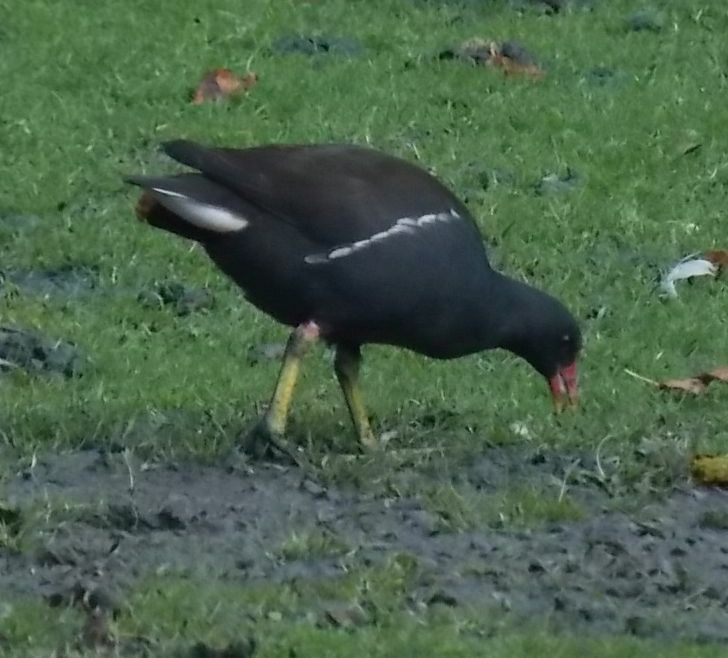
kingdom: Animalia
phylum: Chordata
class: Aves
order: Gruiformes
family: Rallidae
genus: Gallinula
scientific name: Gallinula chloropus
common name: Common moorhen
